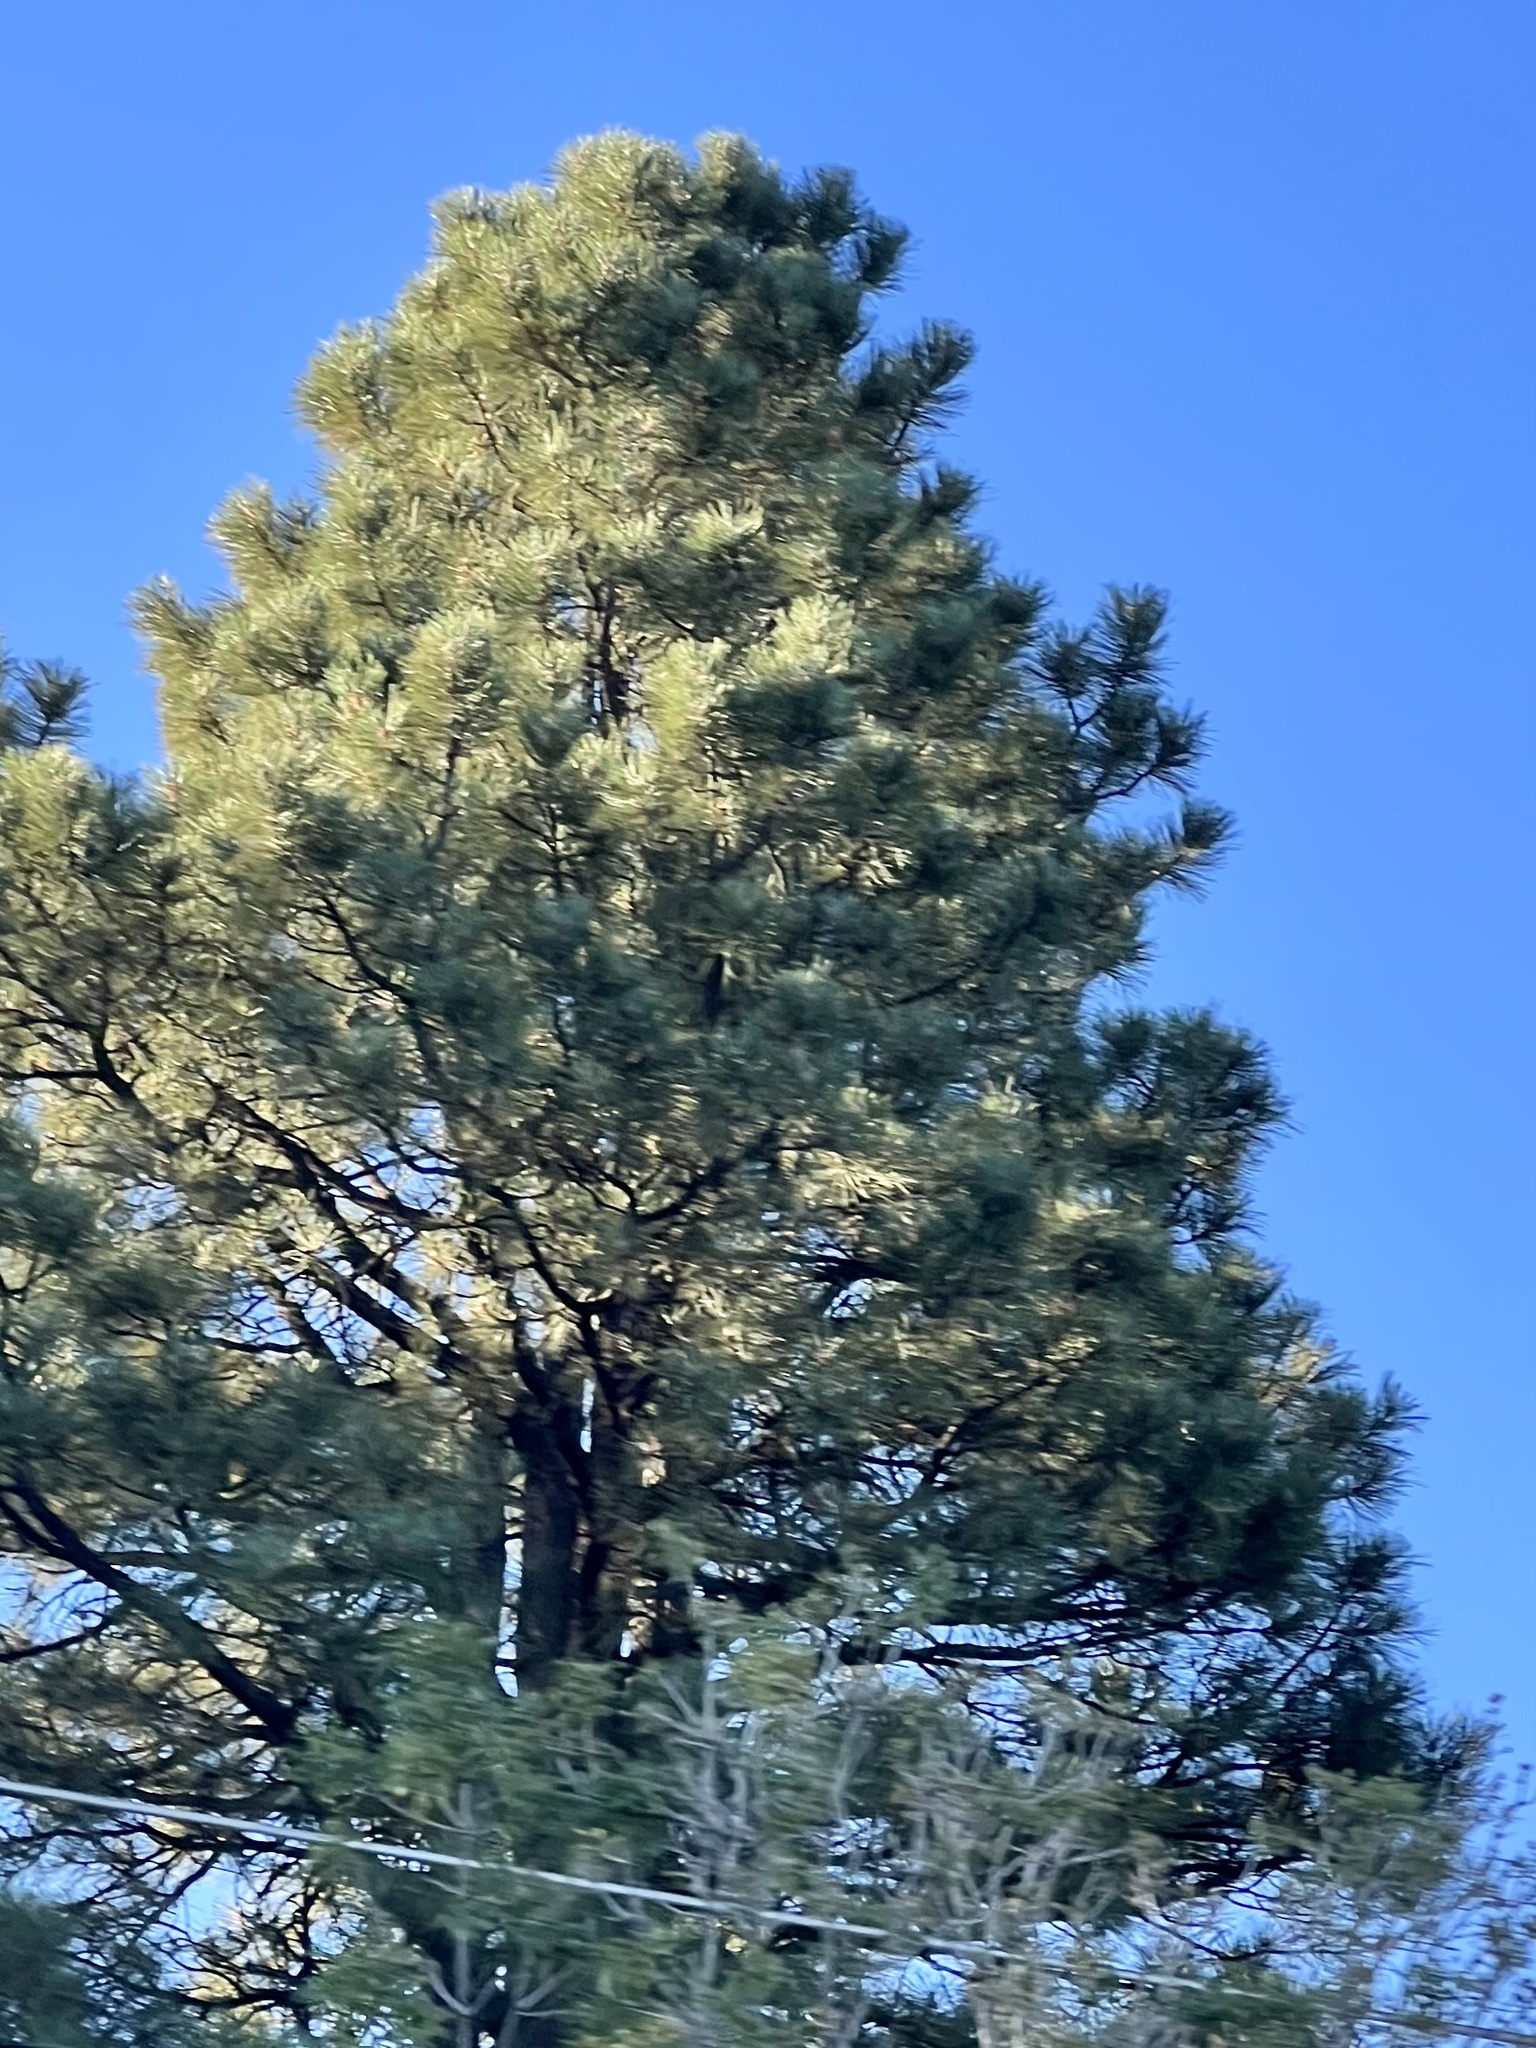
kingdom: Plantae
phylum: Tracheophyta
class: Pinopsida
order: Pinales
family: Pinaceae
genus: Pinus
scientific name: Pinus ponderosa
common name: Western yellow-pine
